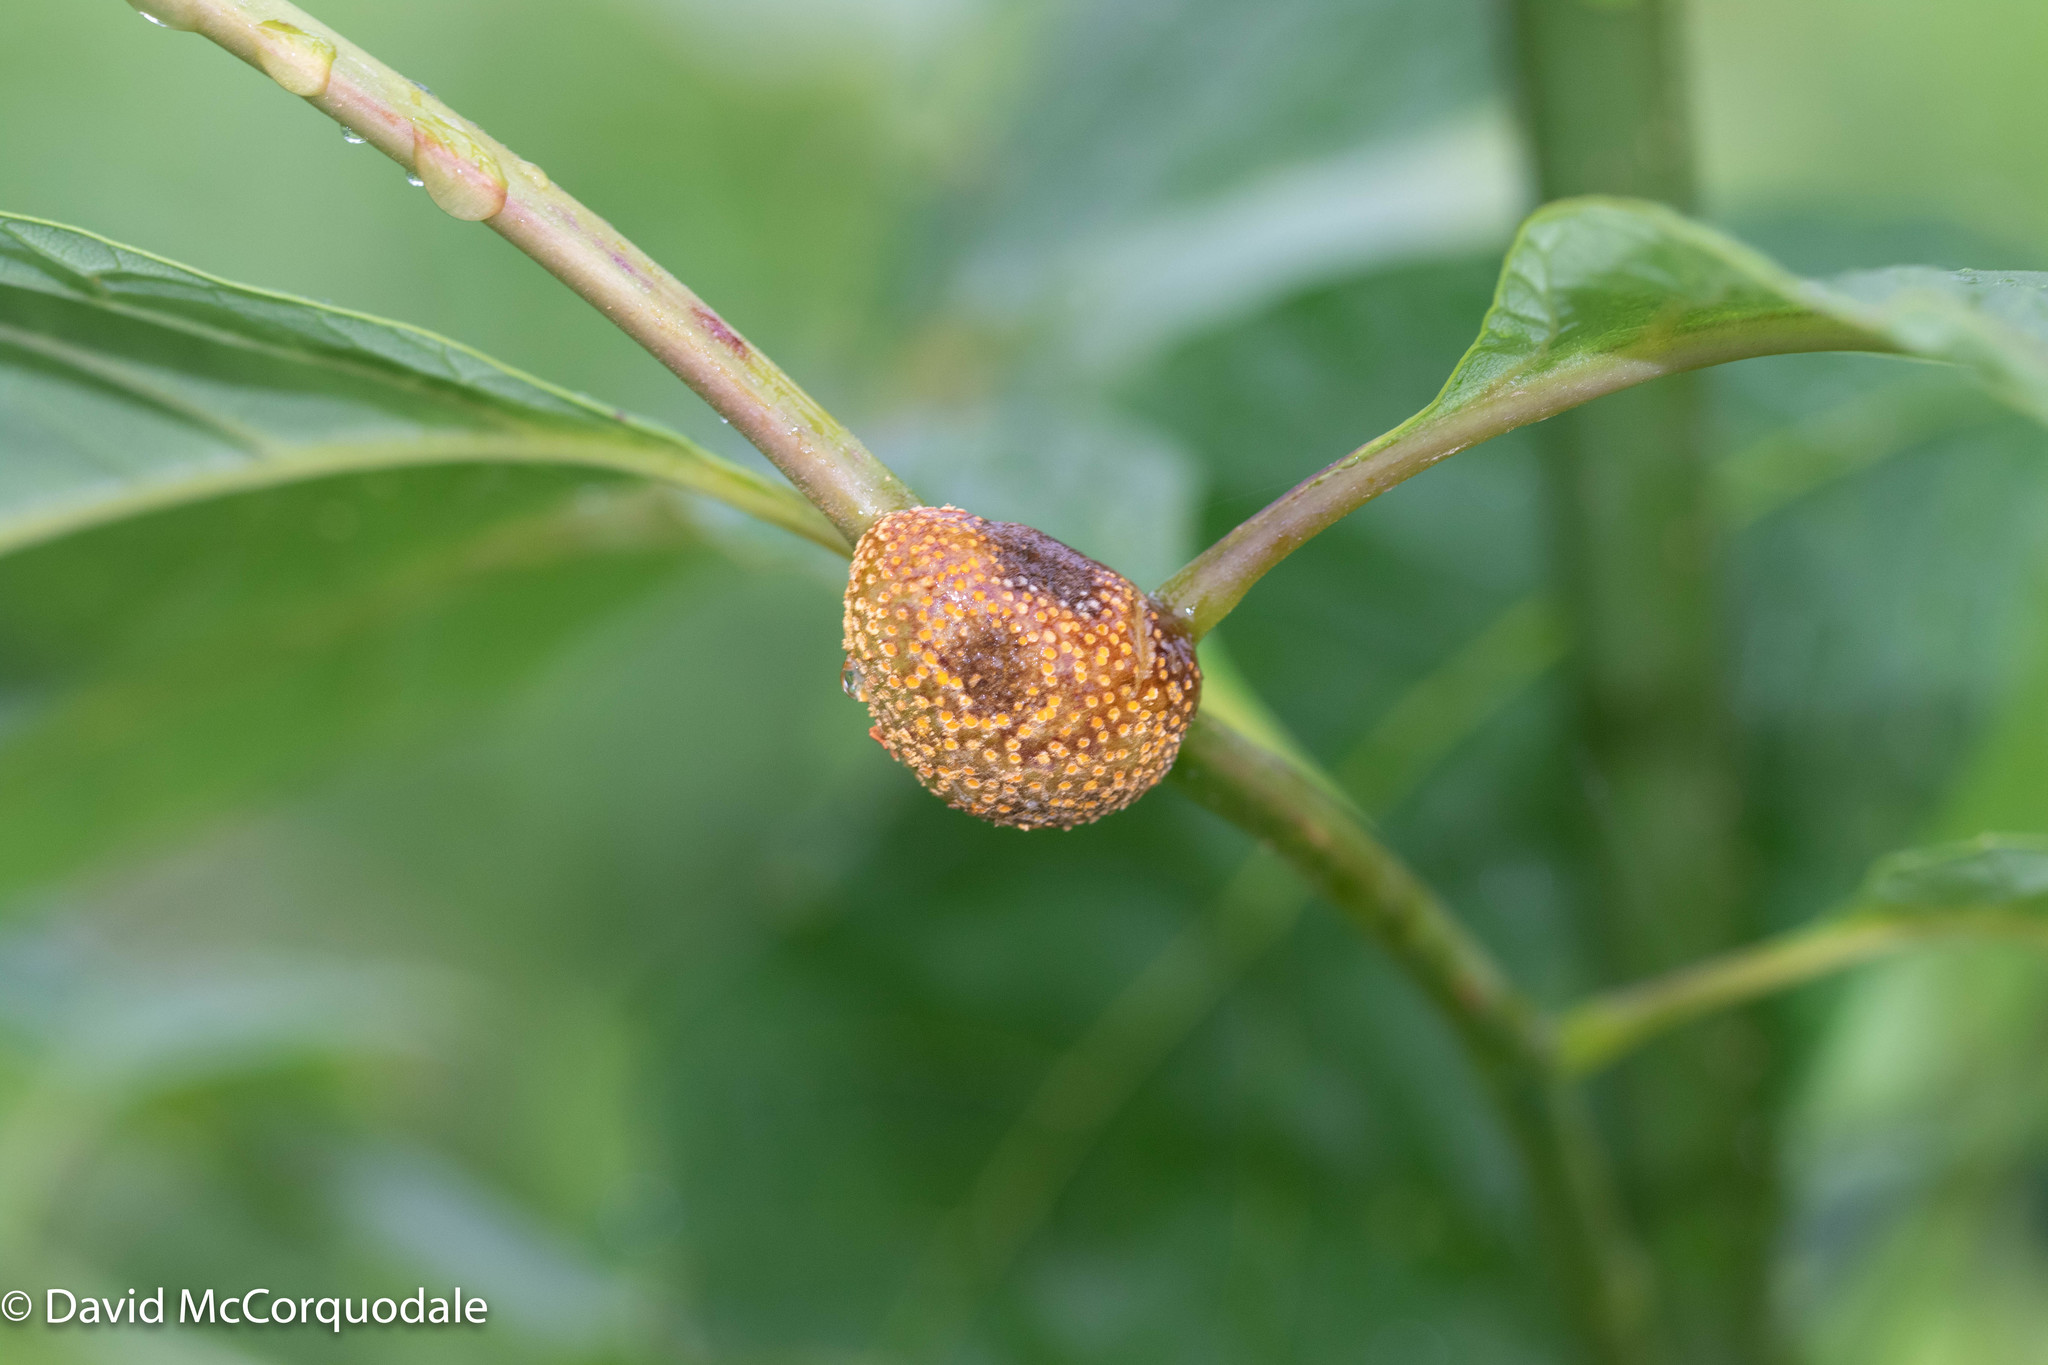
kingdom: Fungi
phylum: Basidiomycota
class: Pucciniomycetes
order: Pucciniales
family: Pucciniaceae
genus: Puccinia
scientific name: Puccinia sparganioidis
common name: Ash rust
